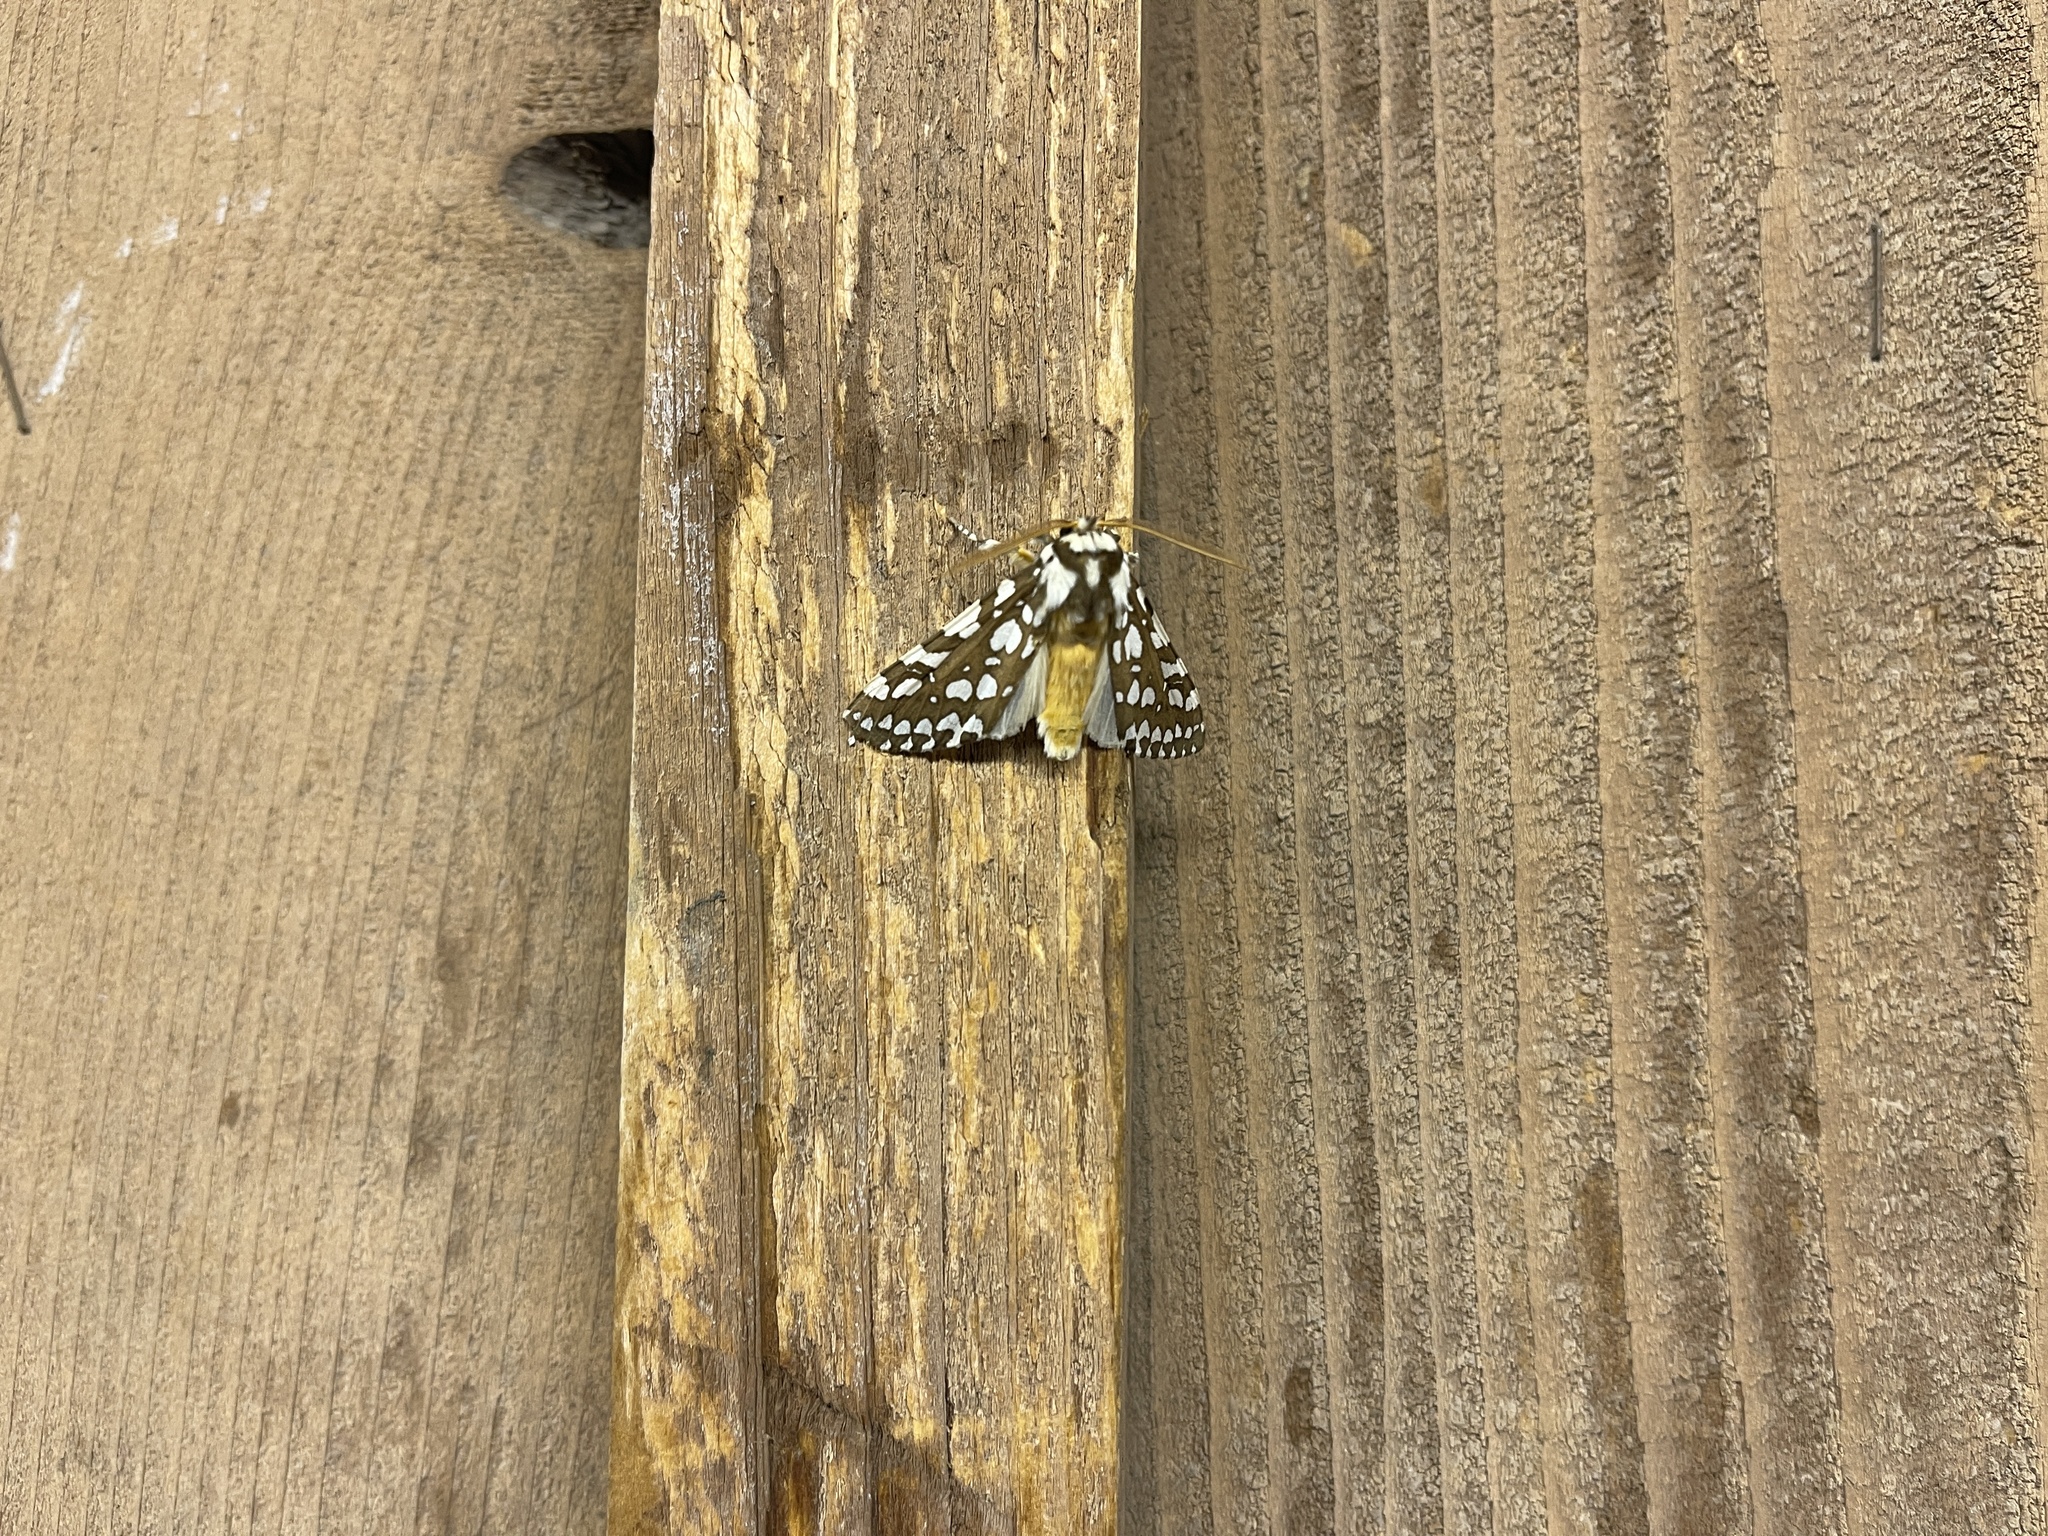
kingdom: Animalia
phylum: Arthropoda
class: Insecta
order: Lepidoptera
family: Erebidae
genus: Lophocampa
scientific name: Lophocampa ingens
